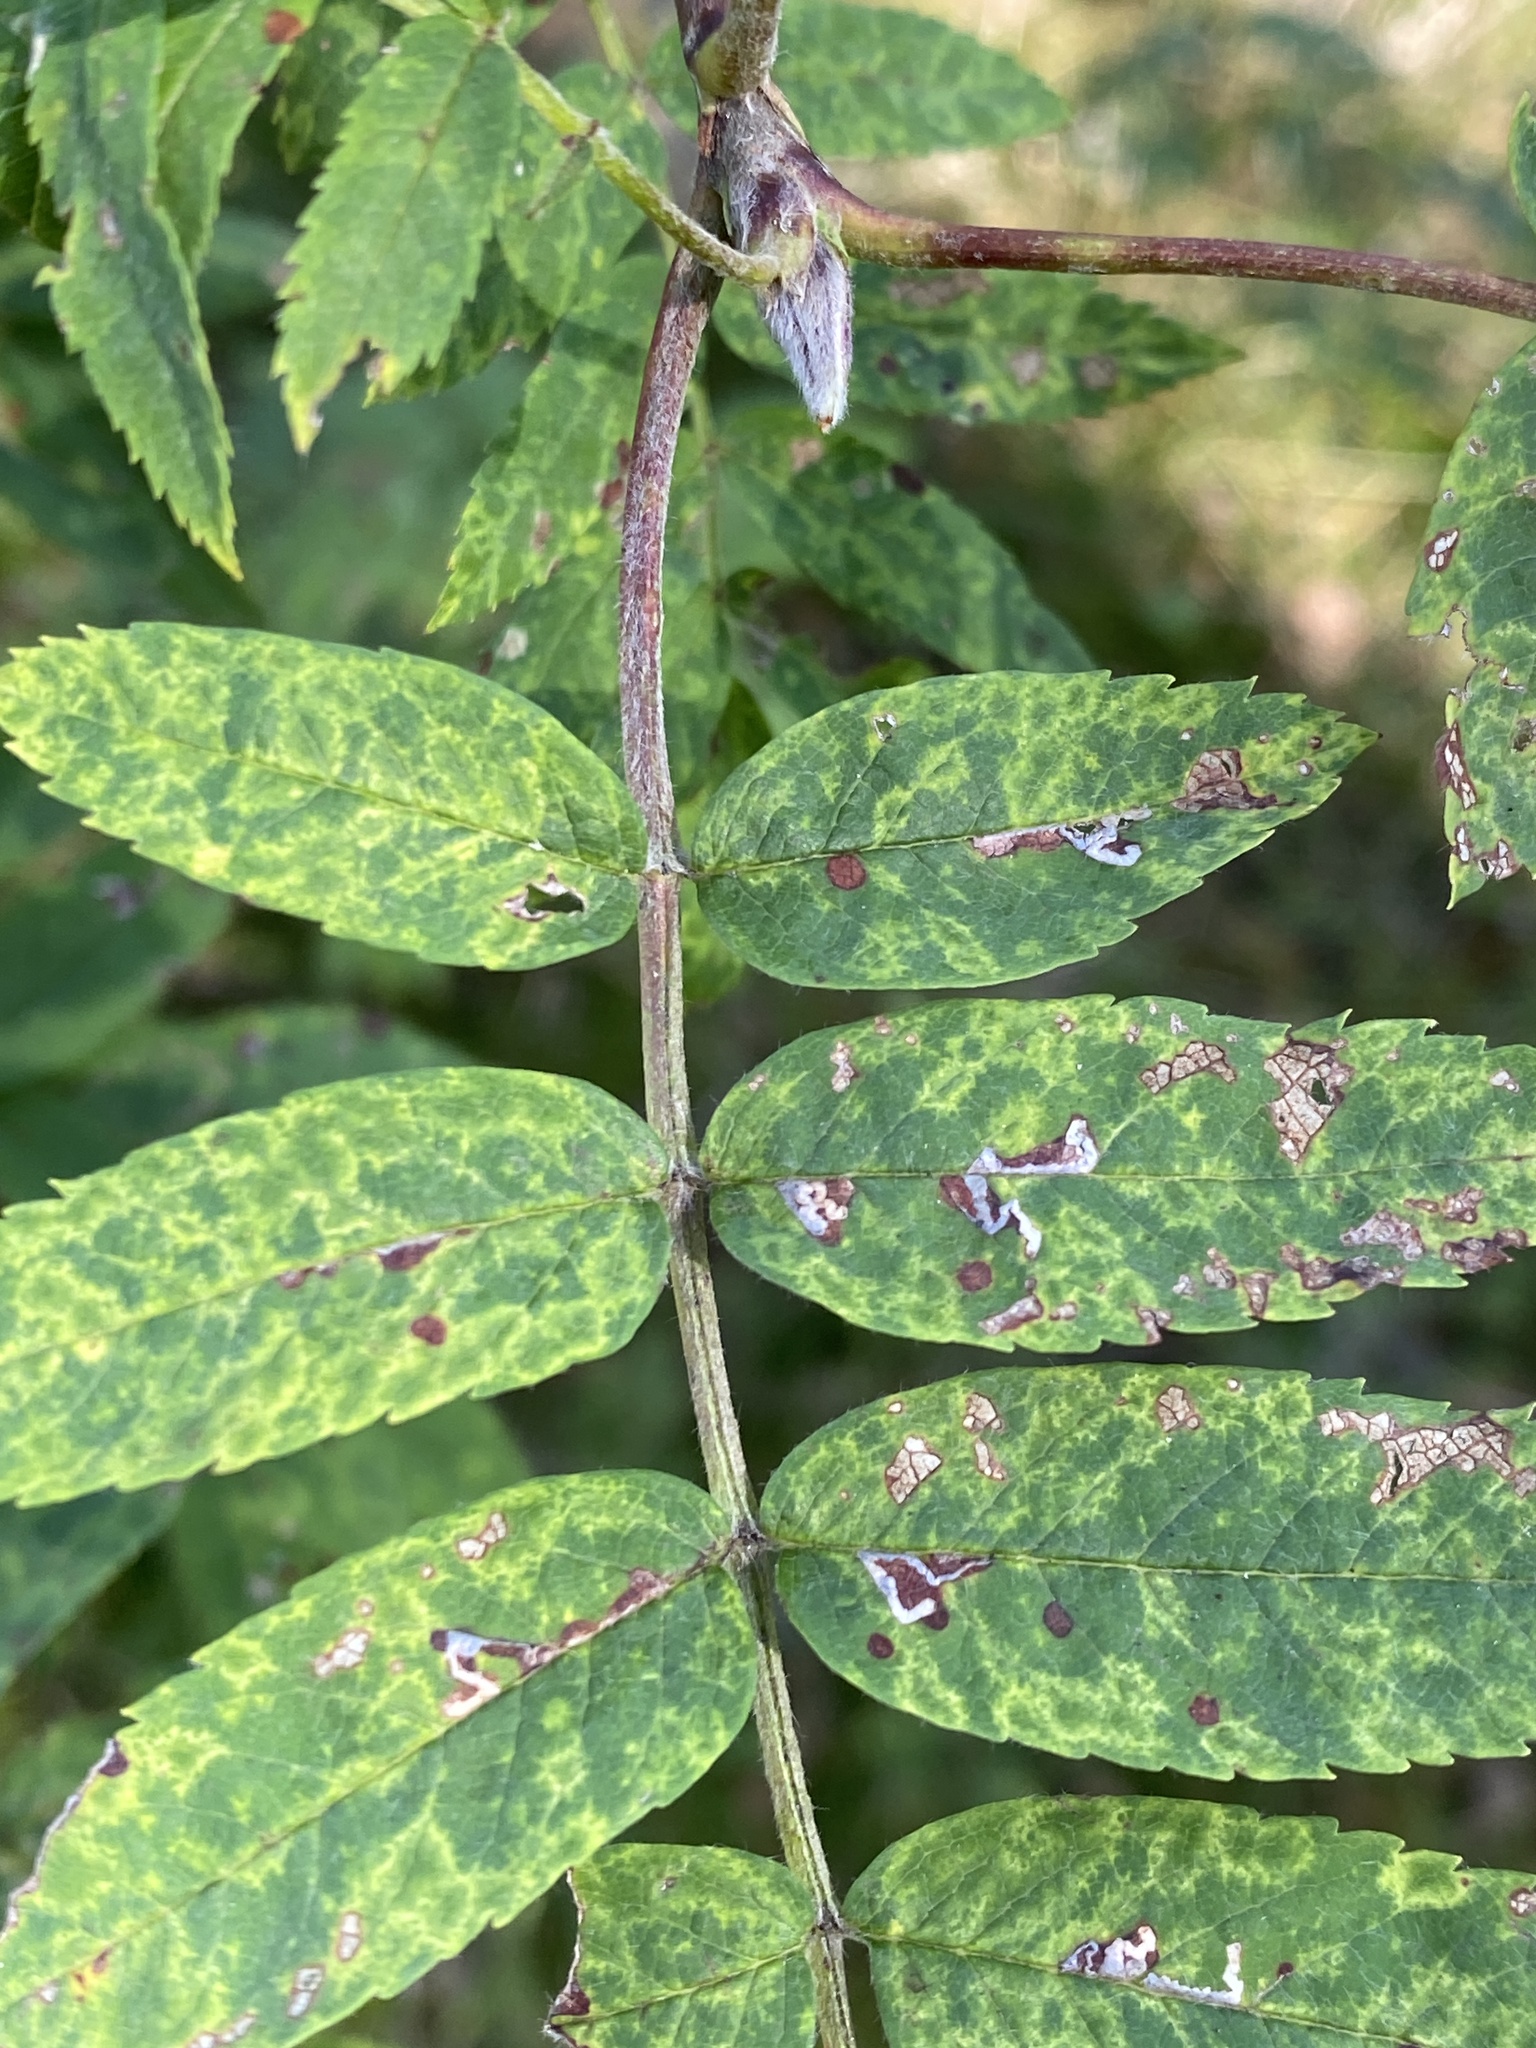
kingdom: Viruses
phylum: Negarnaviricota
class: Ellioviricetes
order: Bunyavirales
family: Fimoviridae
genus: Emaravirus
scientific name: Emaravirus sorbi
